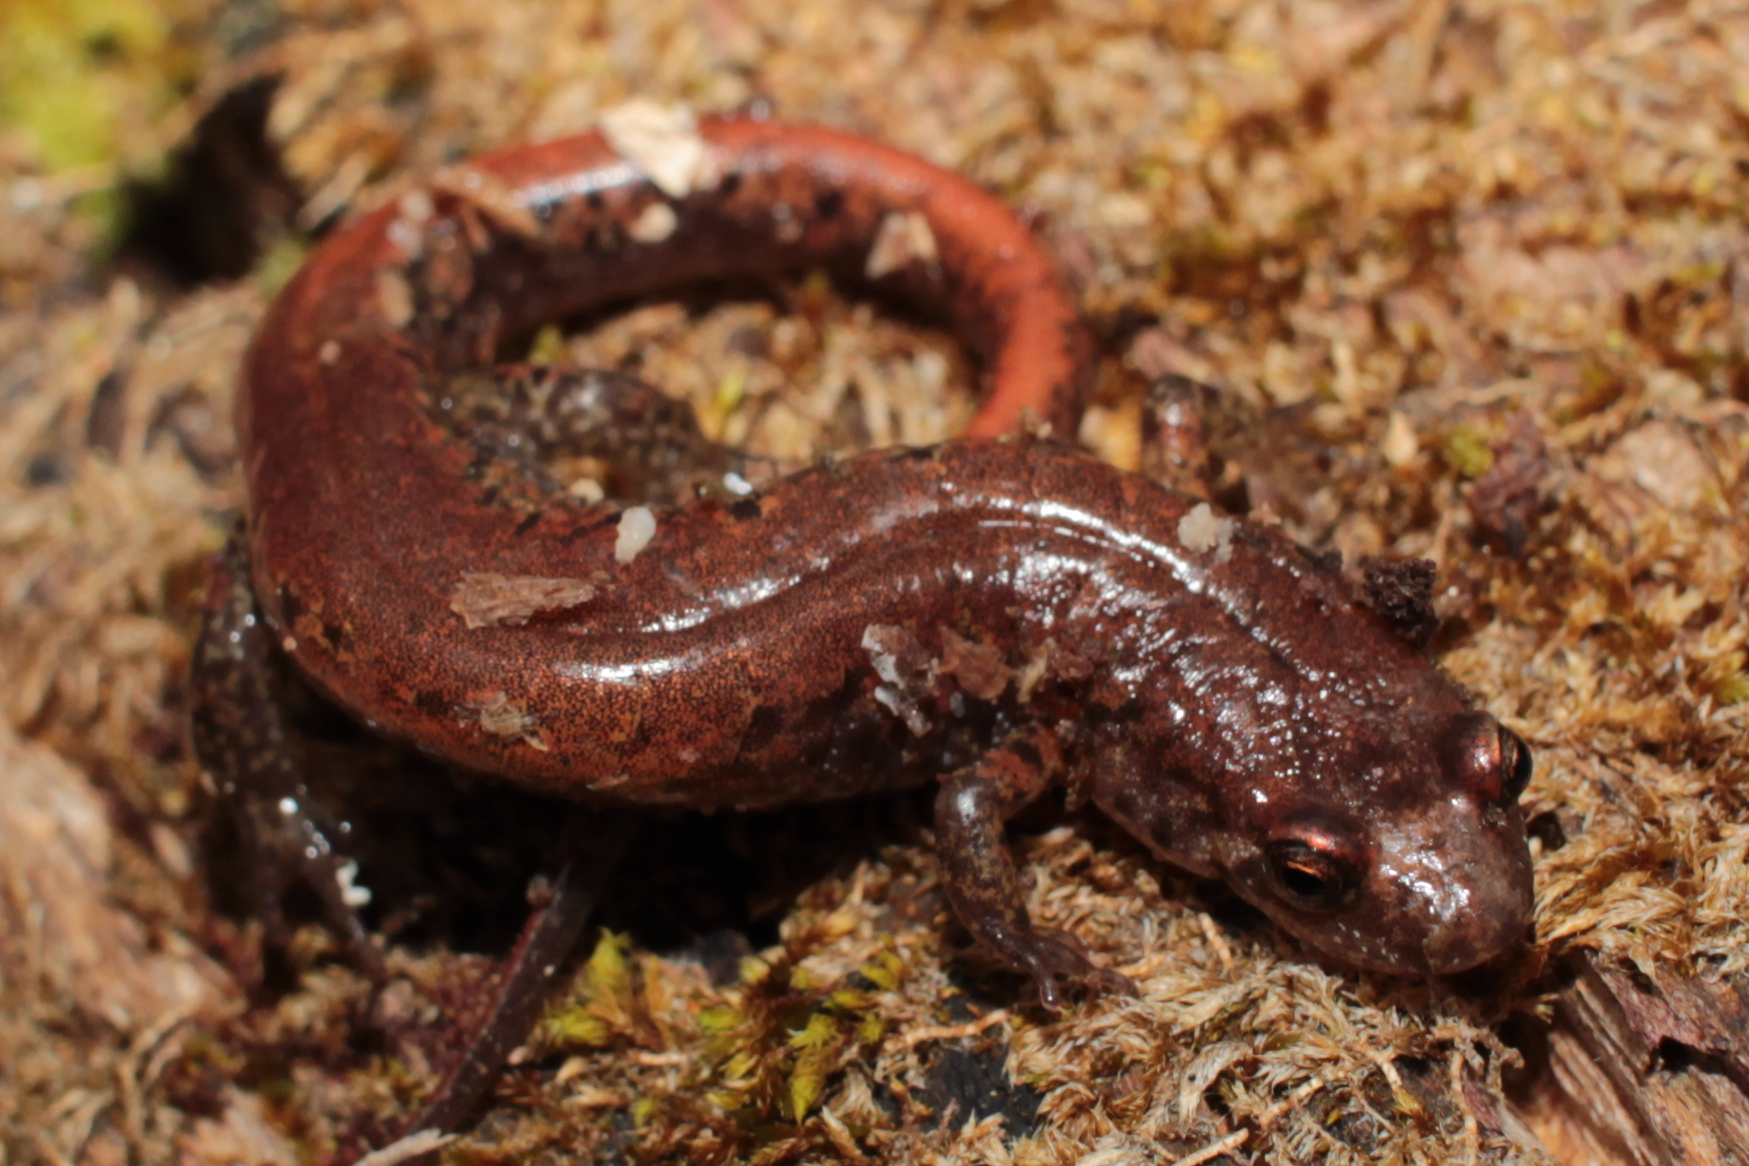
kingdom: Animalia
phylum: Chordata
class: Amphibia
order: Caudata
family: Plethodontidae
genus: Desmognathus
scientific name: Desmognathus orestes
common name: Blue ridge dusky salamander
